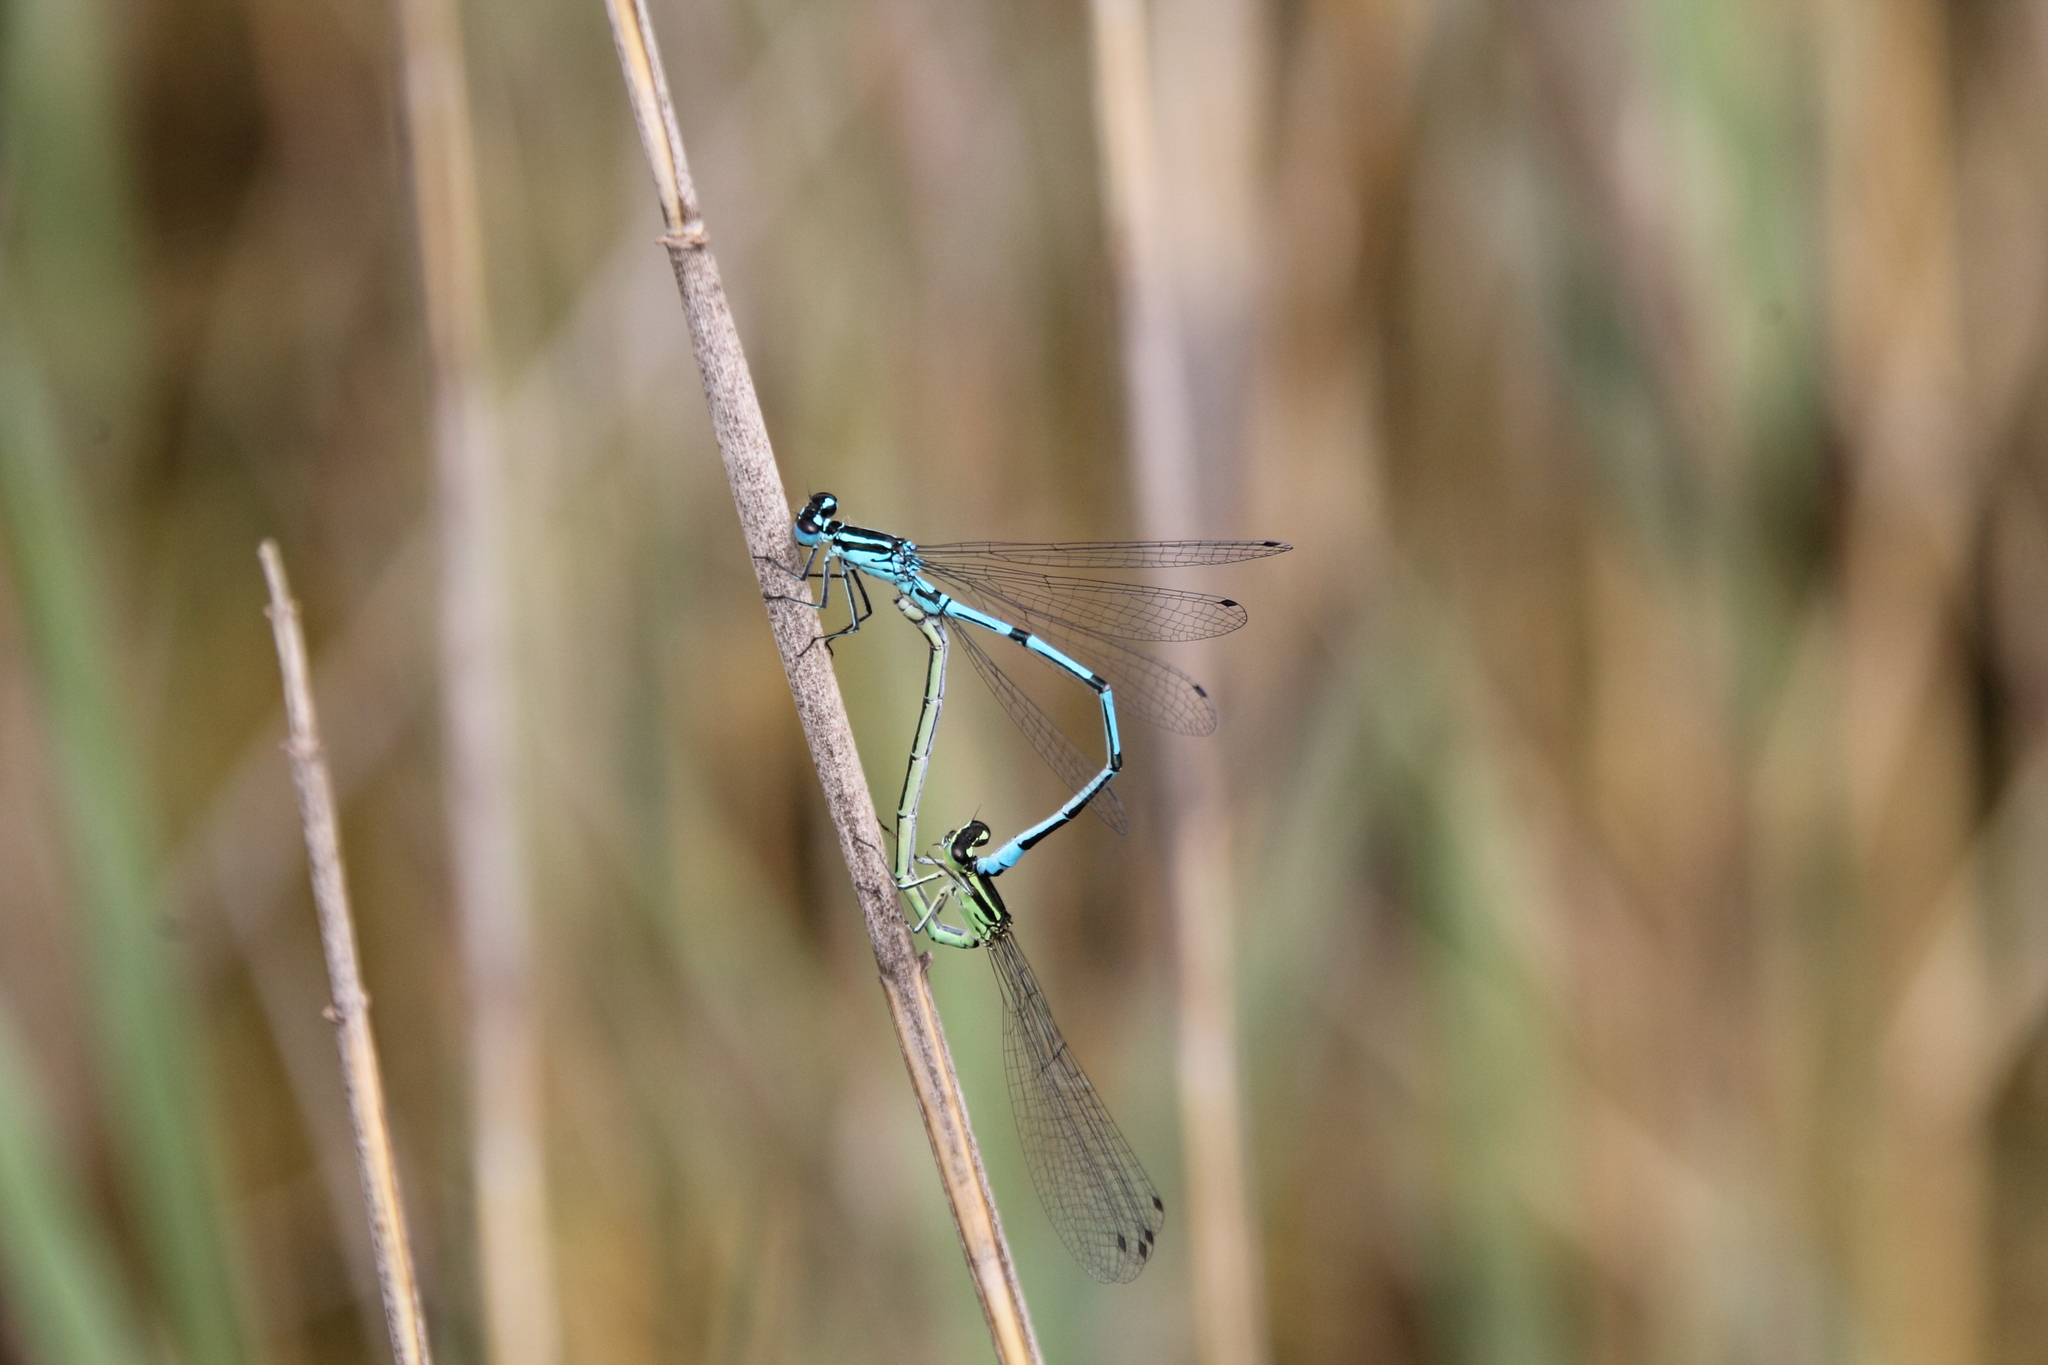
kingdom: Animalia
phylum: Arthropoda
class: Insecta
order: Odonata
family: Coenagrionidae
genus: Coenagrion
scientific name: Coenagrion puella
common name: Azure damselfly
